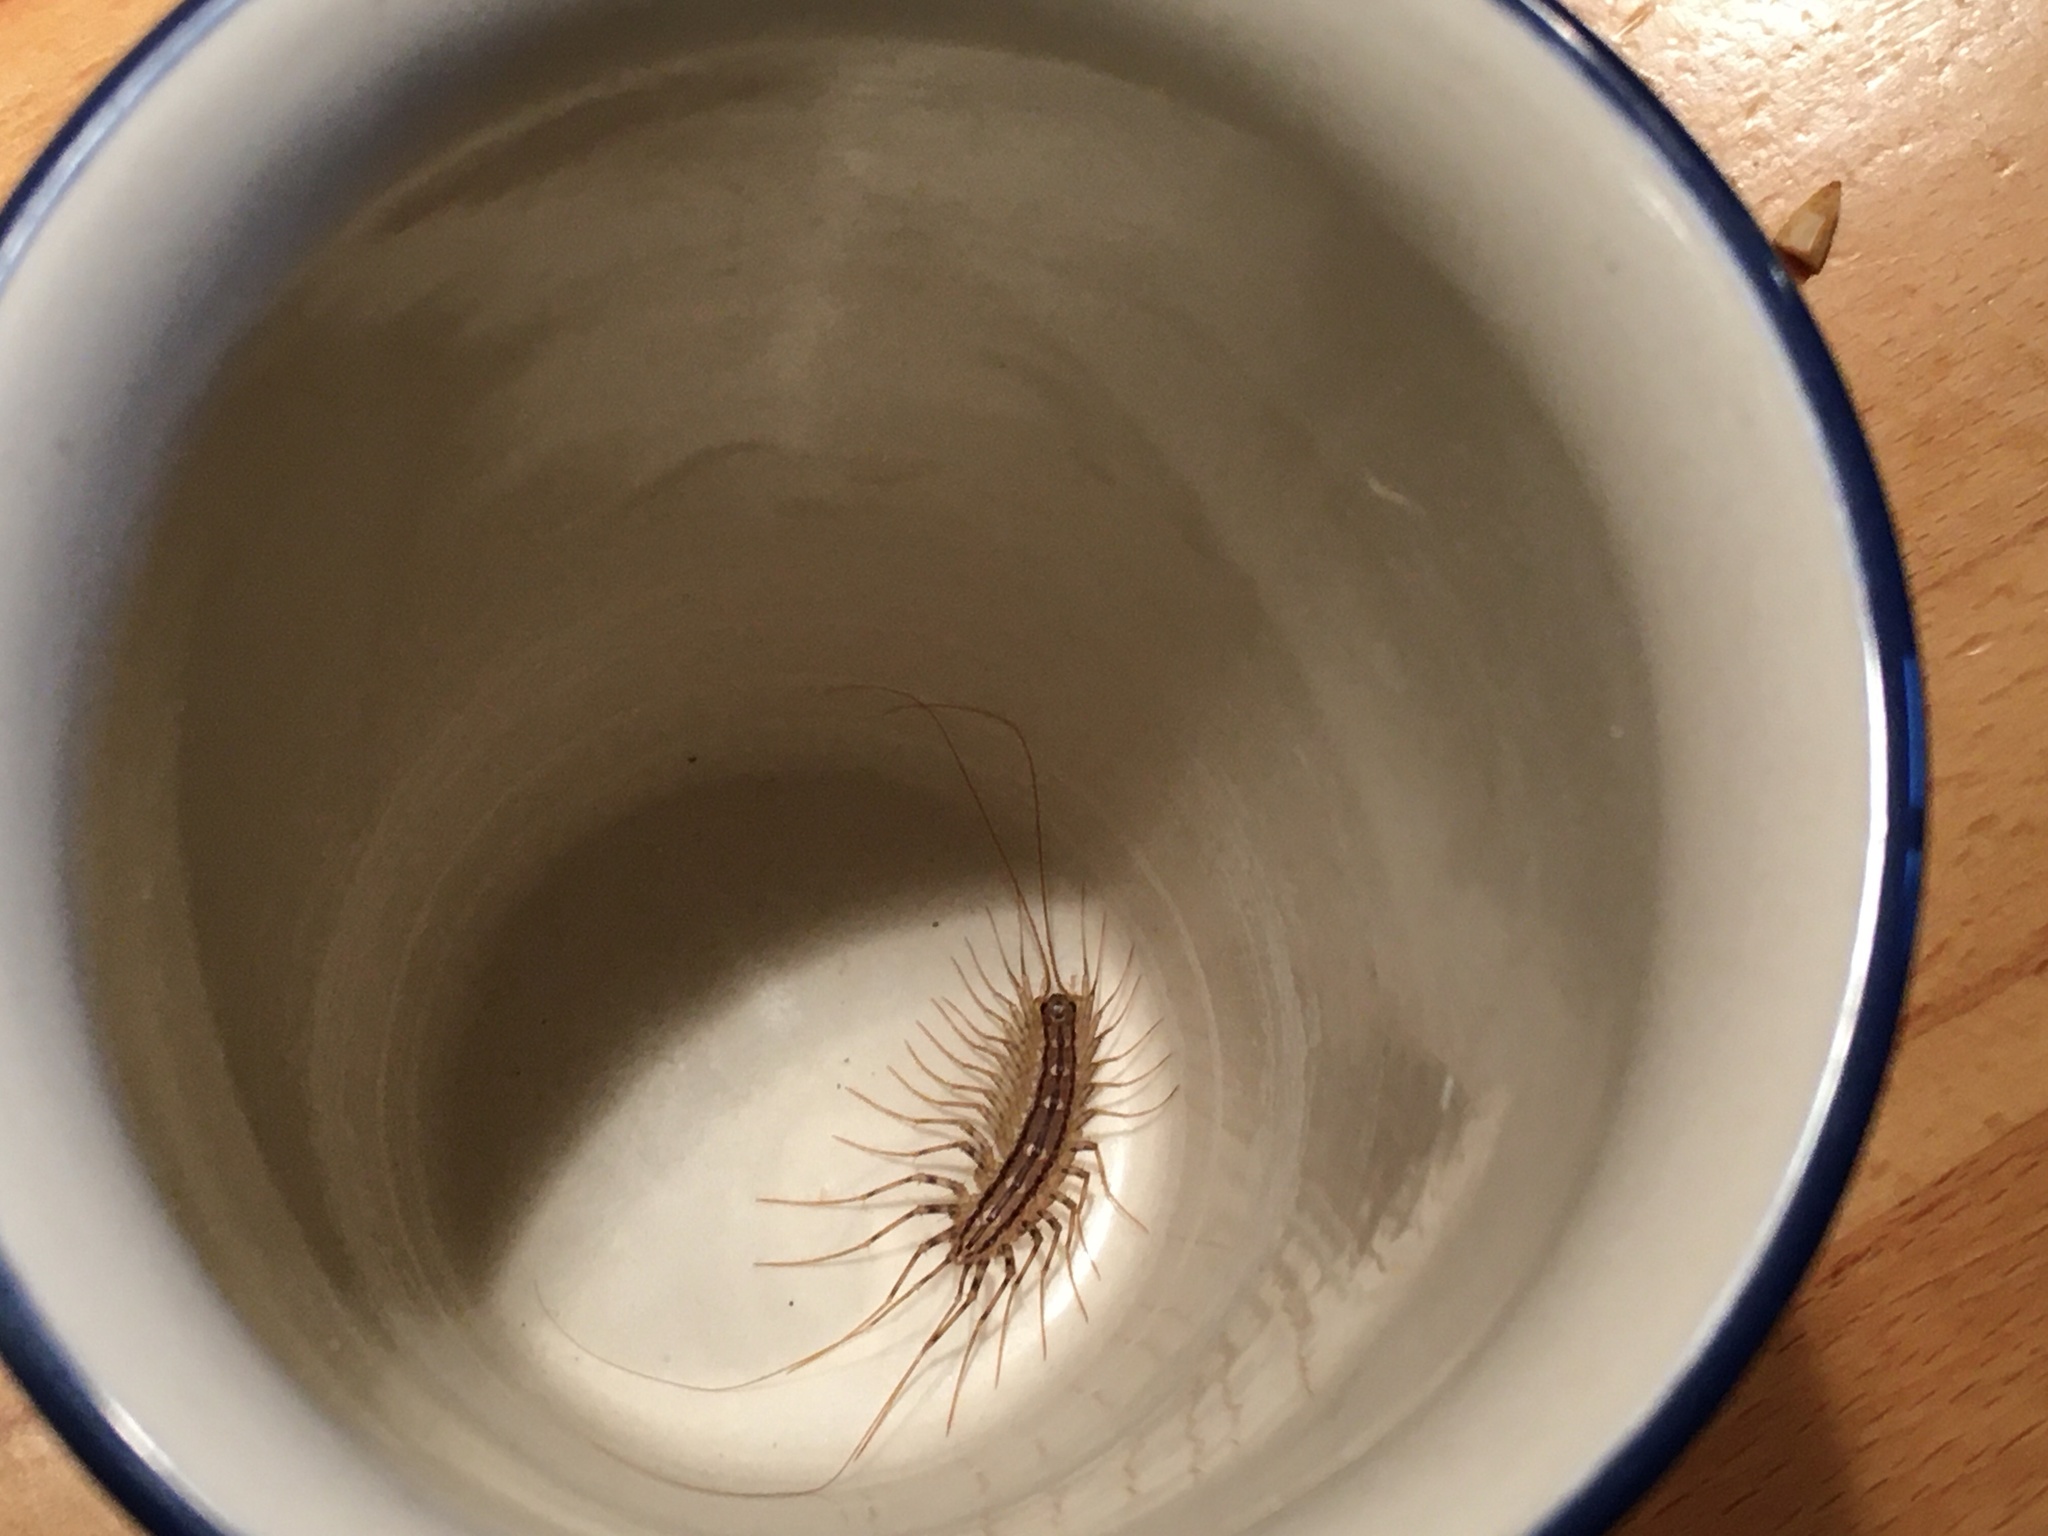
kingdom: Animalia
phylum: Arthropoda
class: Chilopoda
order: Scutigeromorpha
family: Scutigeridae
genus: Scutigera
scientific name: Scutigera coleoptrata
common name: House centipede
